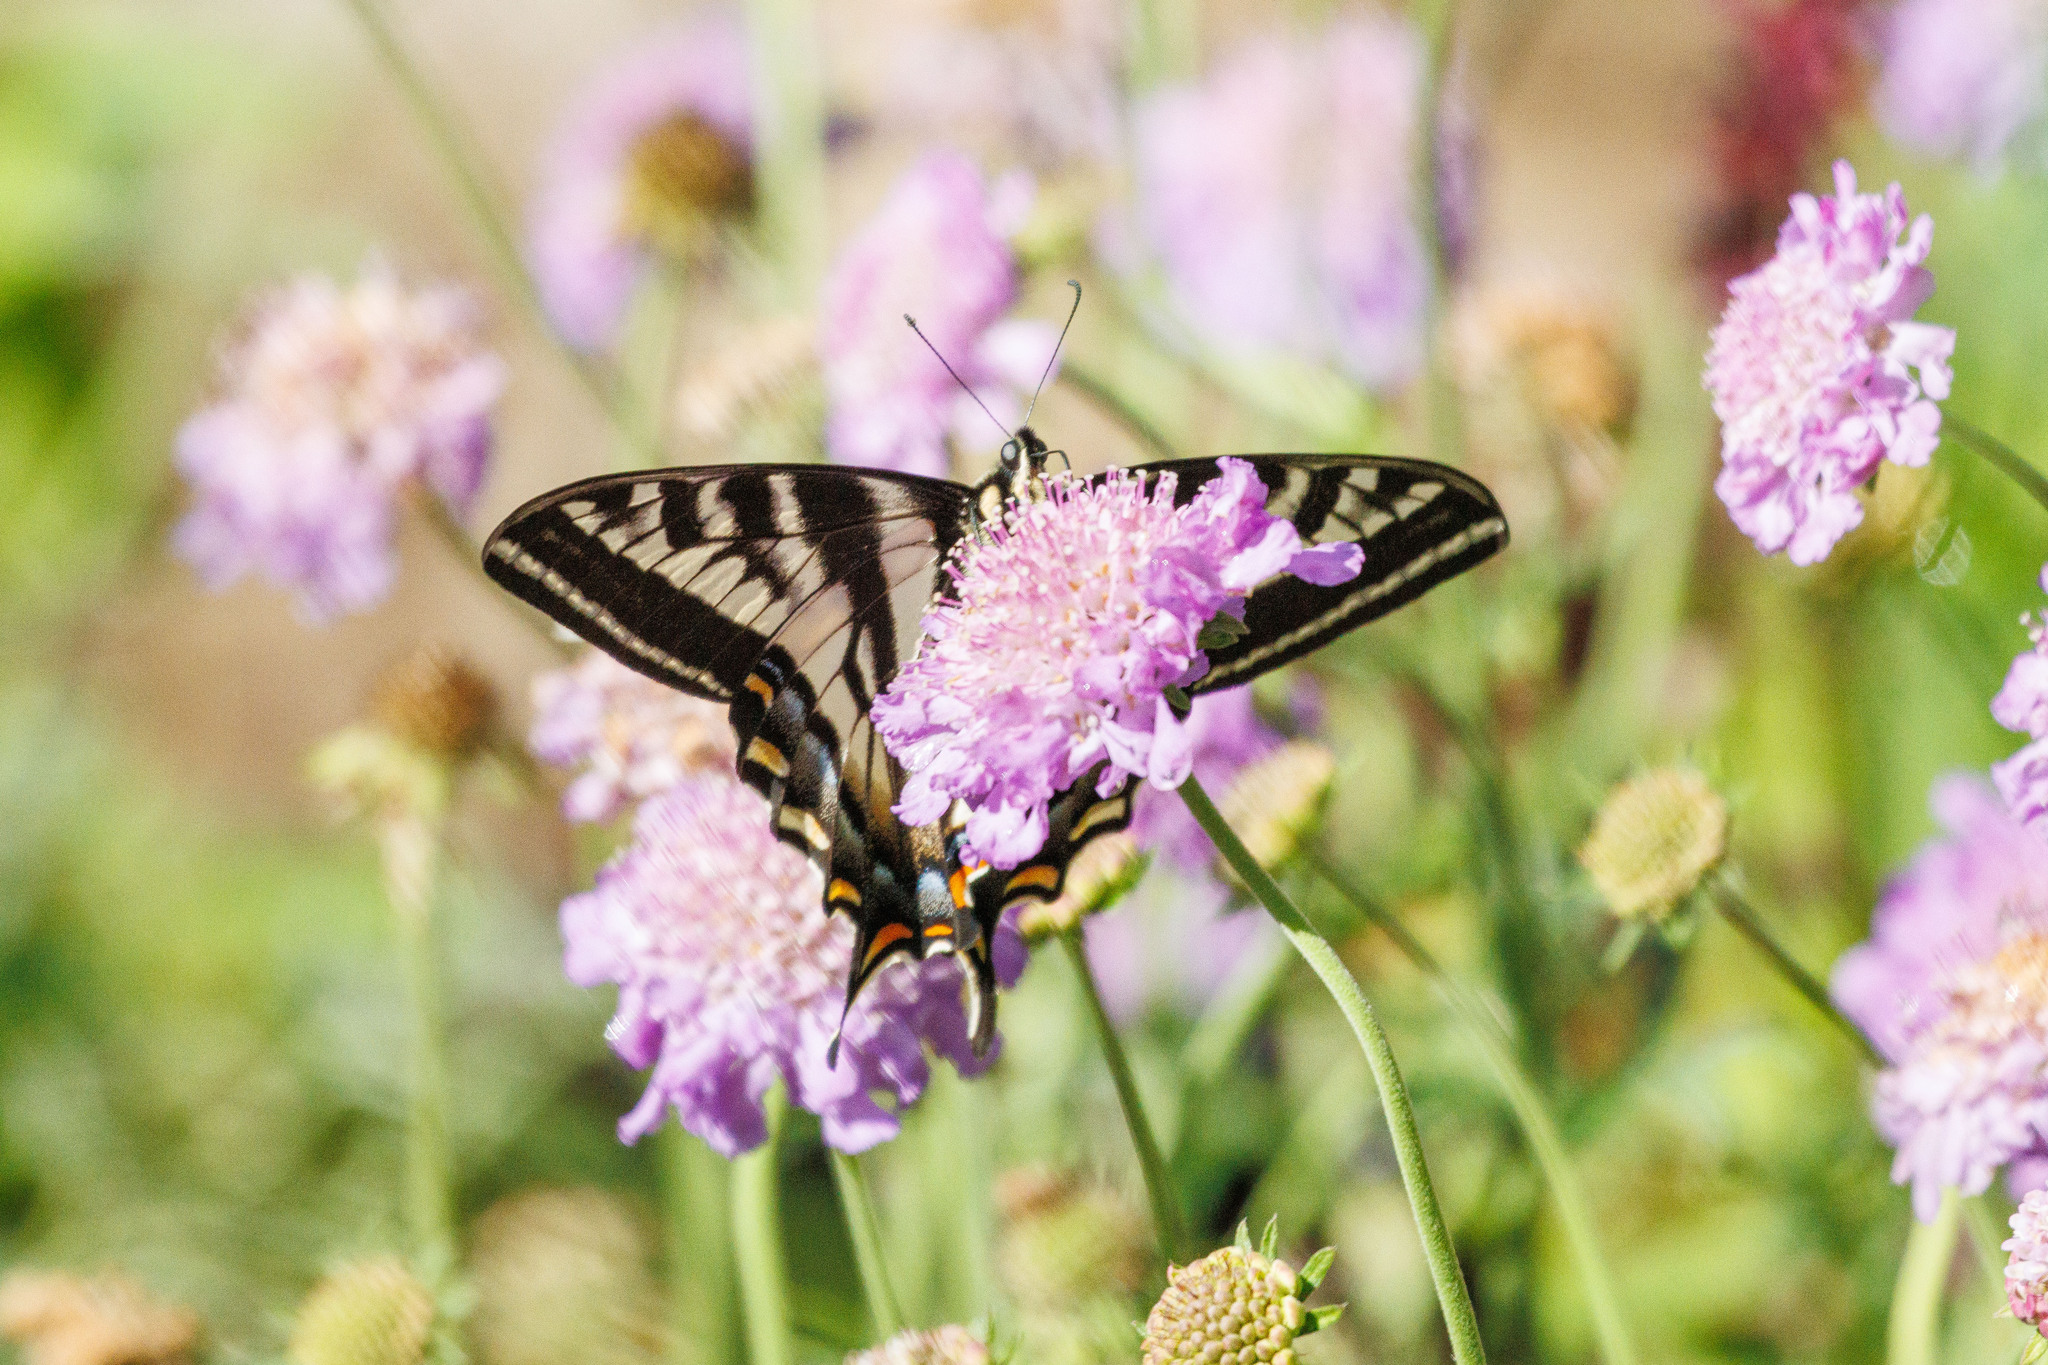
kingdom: Animalia
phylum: Arthropoda
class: Insecta
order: Lepidoptera
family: Papilionidae
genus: Papilio
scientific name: Papilio eurymedon
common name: Pale tiger swallowtail
